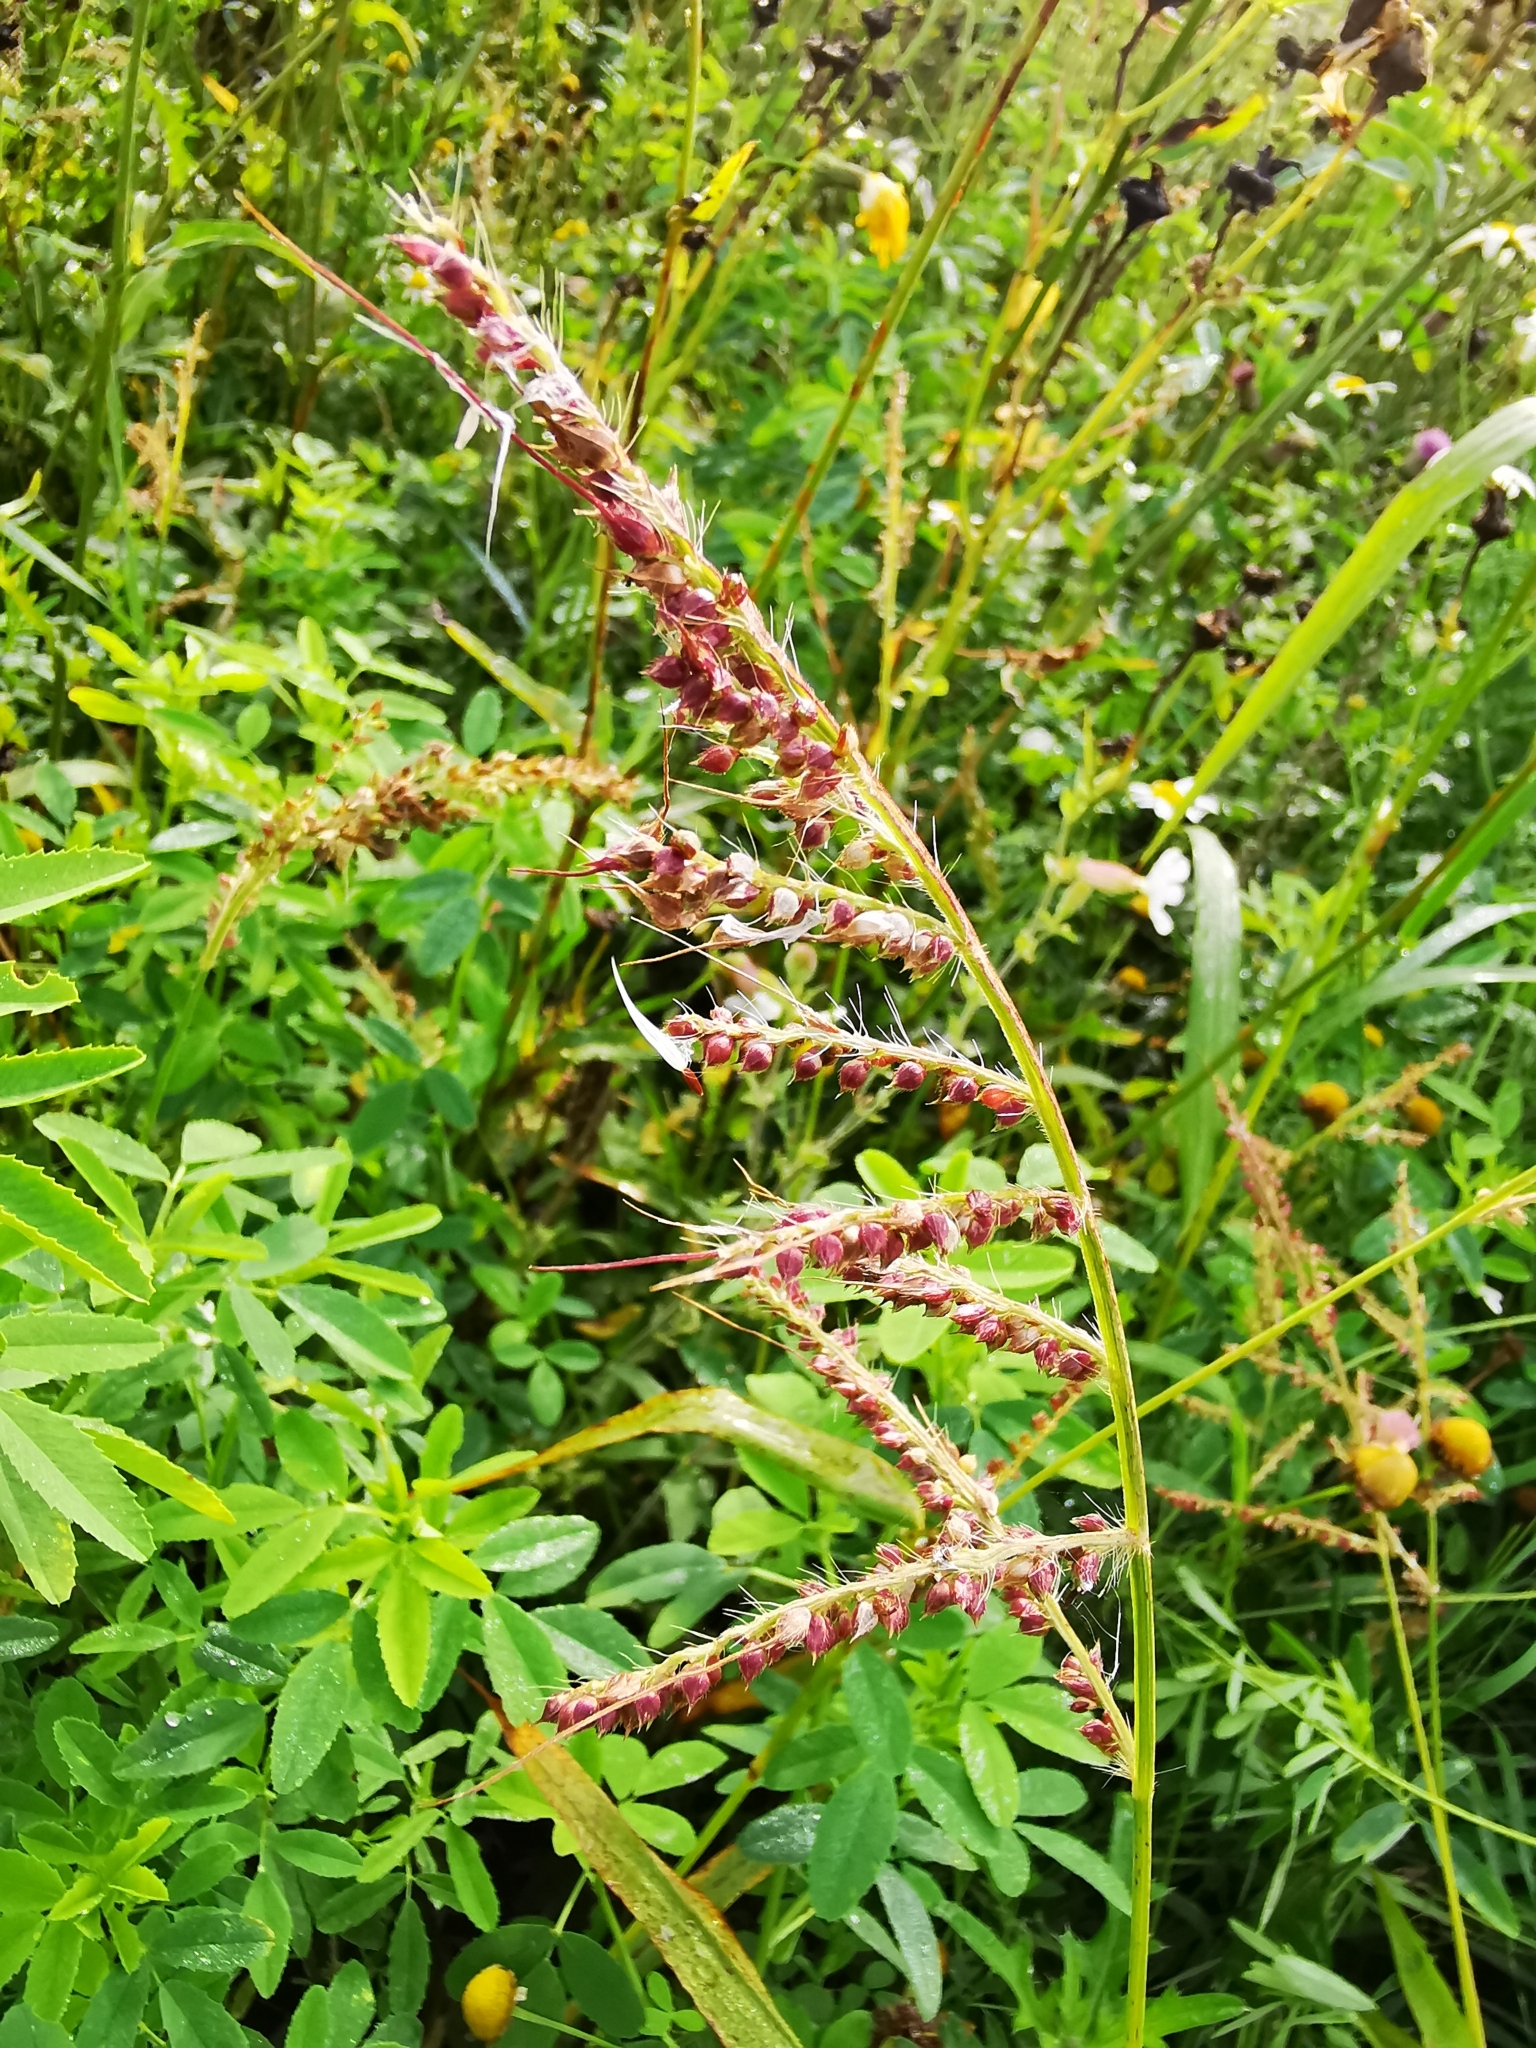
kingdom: Plantae
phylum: Tracheophyta
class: Liliopsida
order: Poales
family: Poaceae
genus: Echinochloa
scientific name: Echinochloa crus-galli
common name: Cockspur
